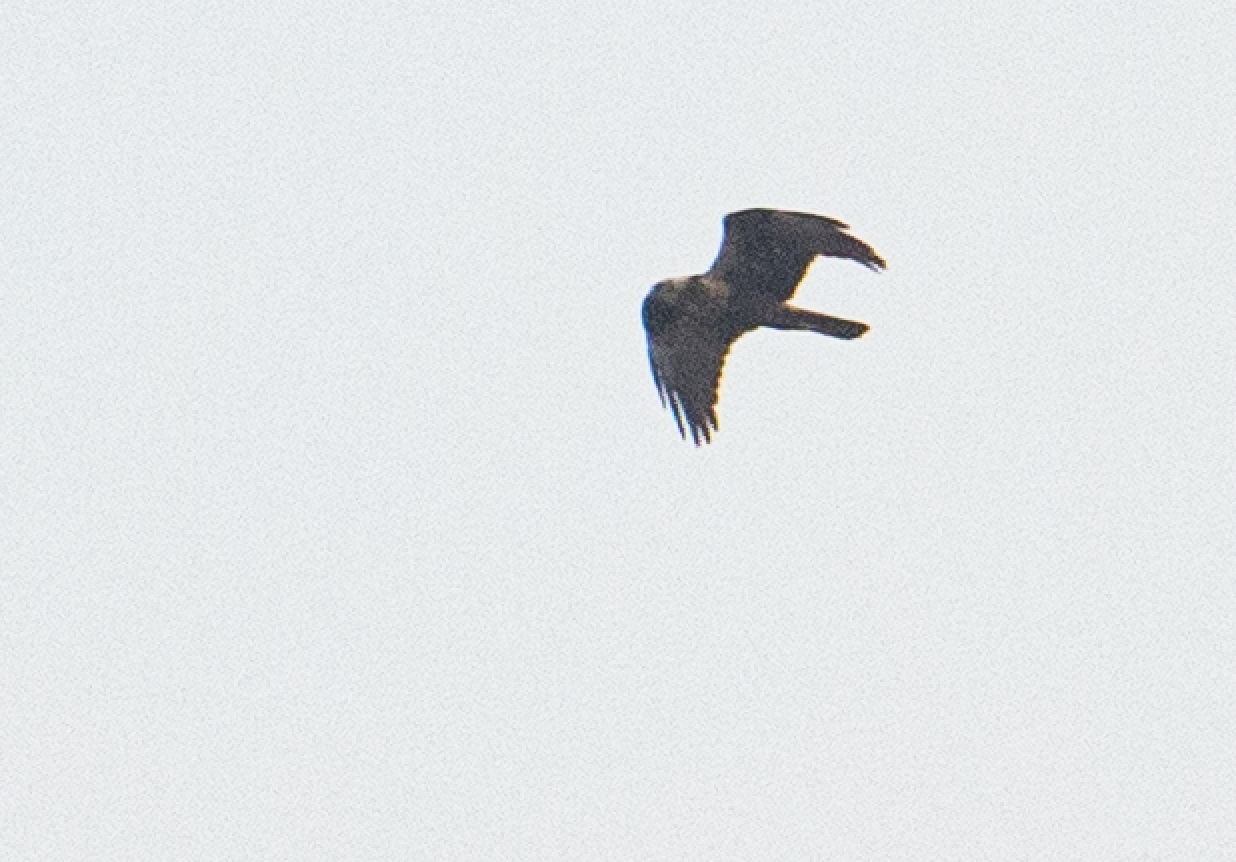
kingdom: Animalia
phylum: Chordata
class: Aves
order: Accipitriformes
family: Accipitridae
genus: Circus
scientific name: Circus aeruginosus
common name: Western marsh harrier
